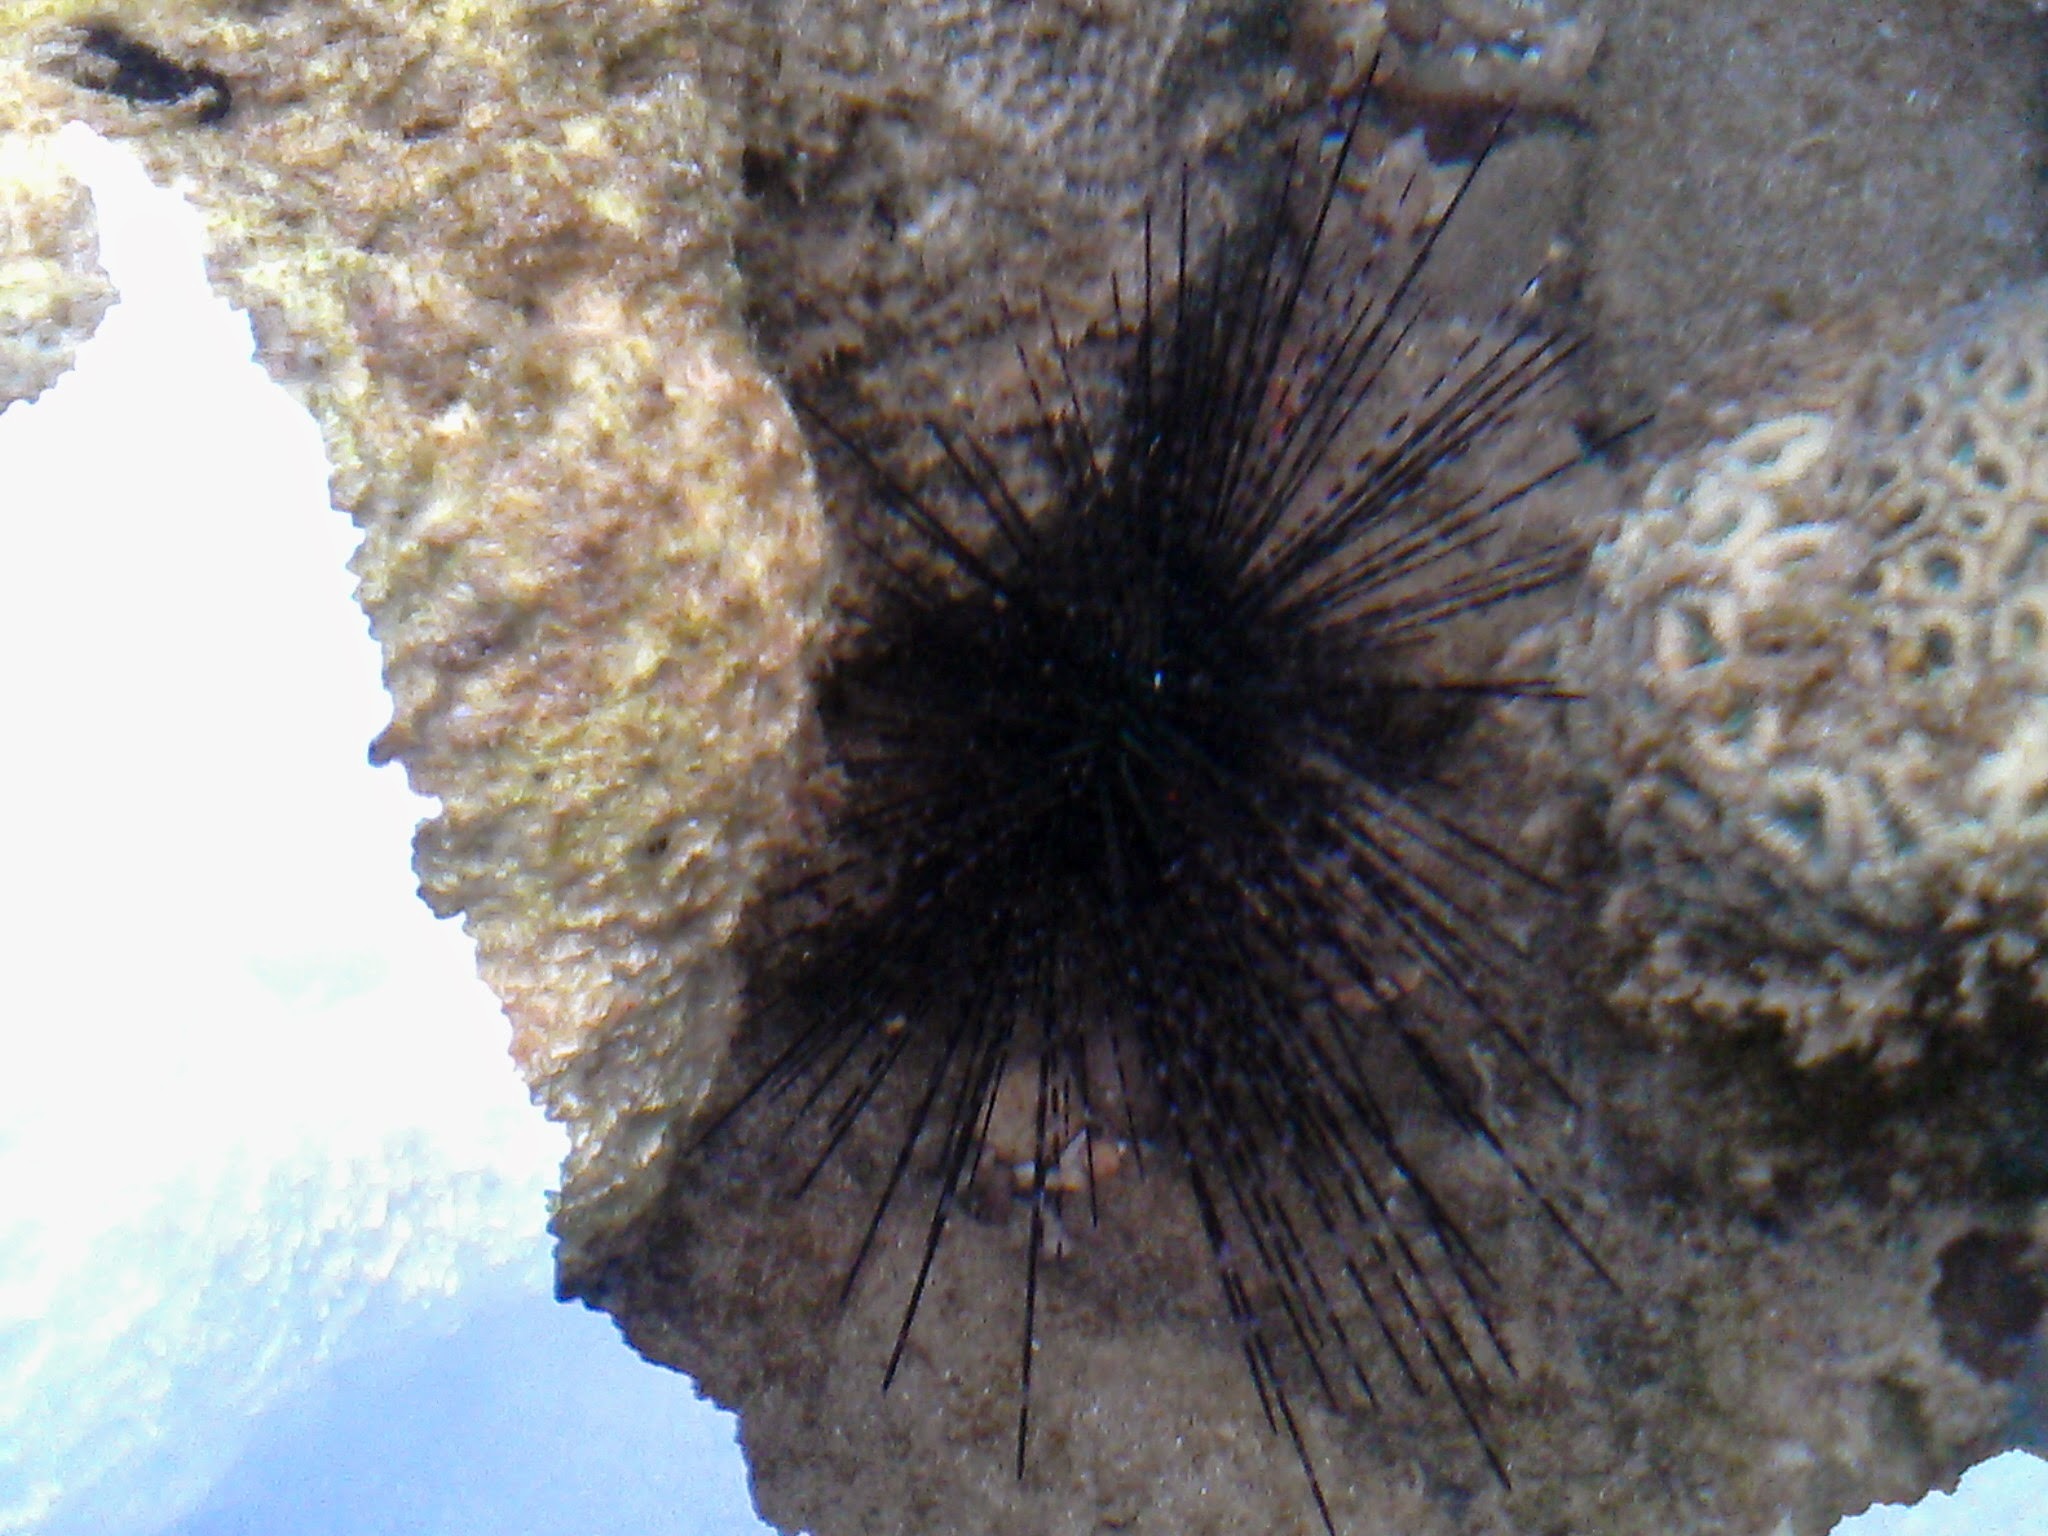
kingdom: Animalia
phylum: Echinodermata
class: Echinoidea
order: Diadematoida
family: Diadematidae
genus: Diadema
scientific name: Diadema setosum
